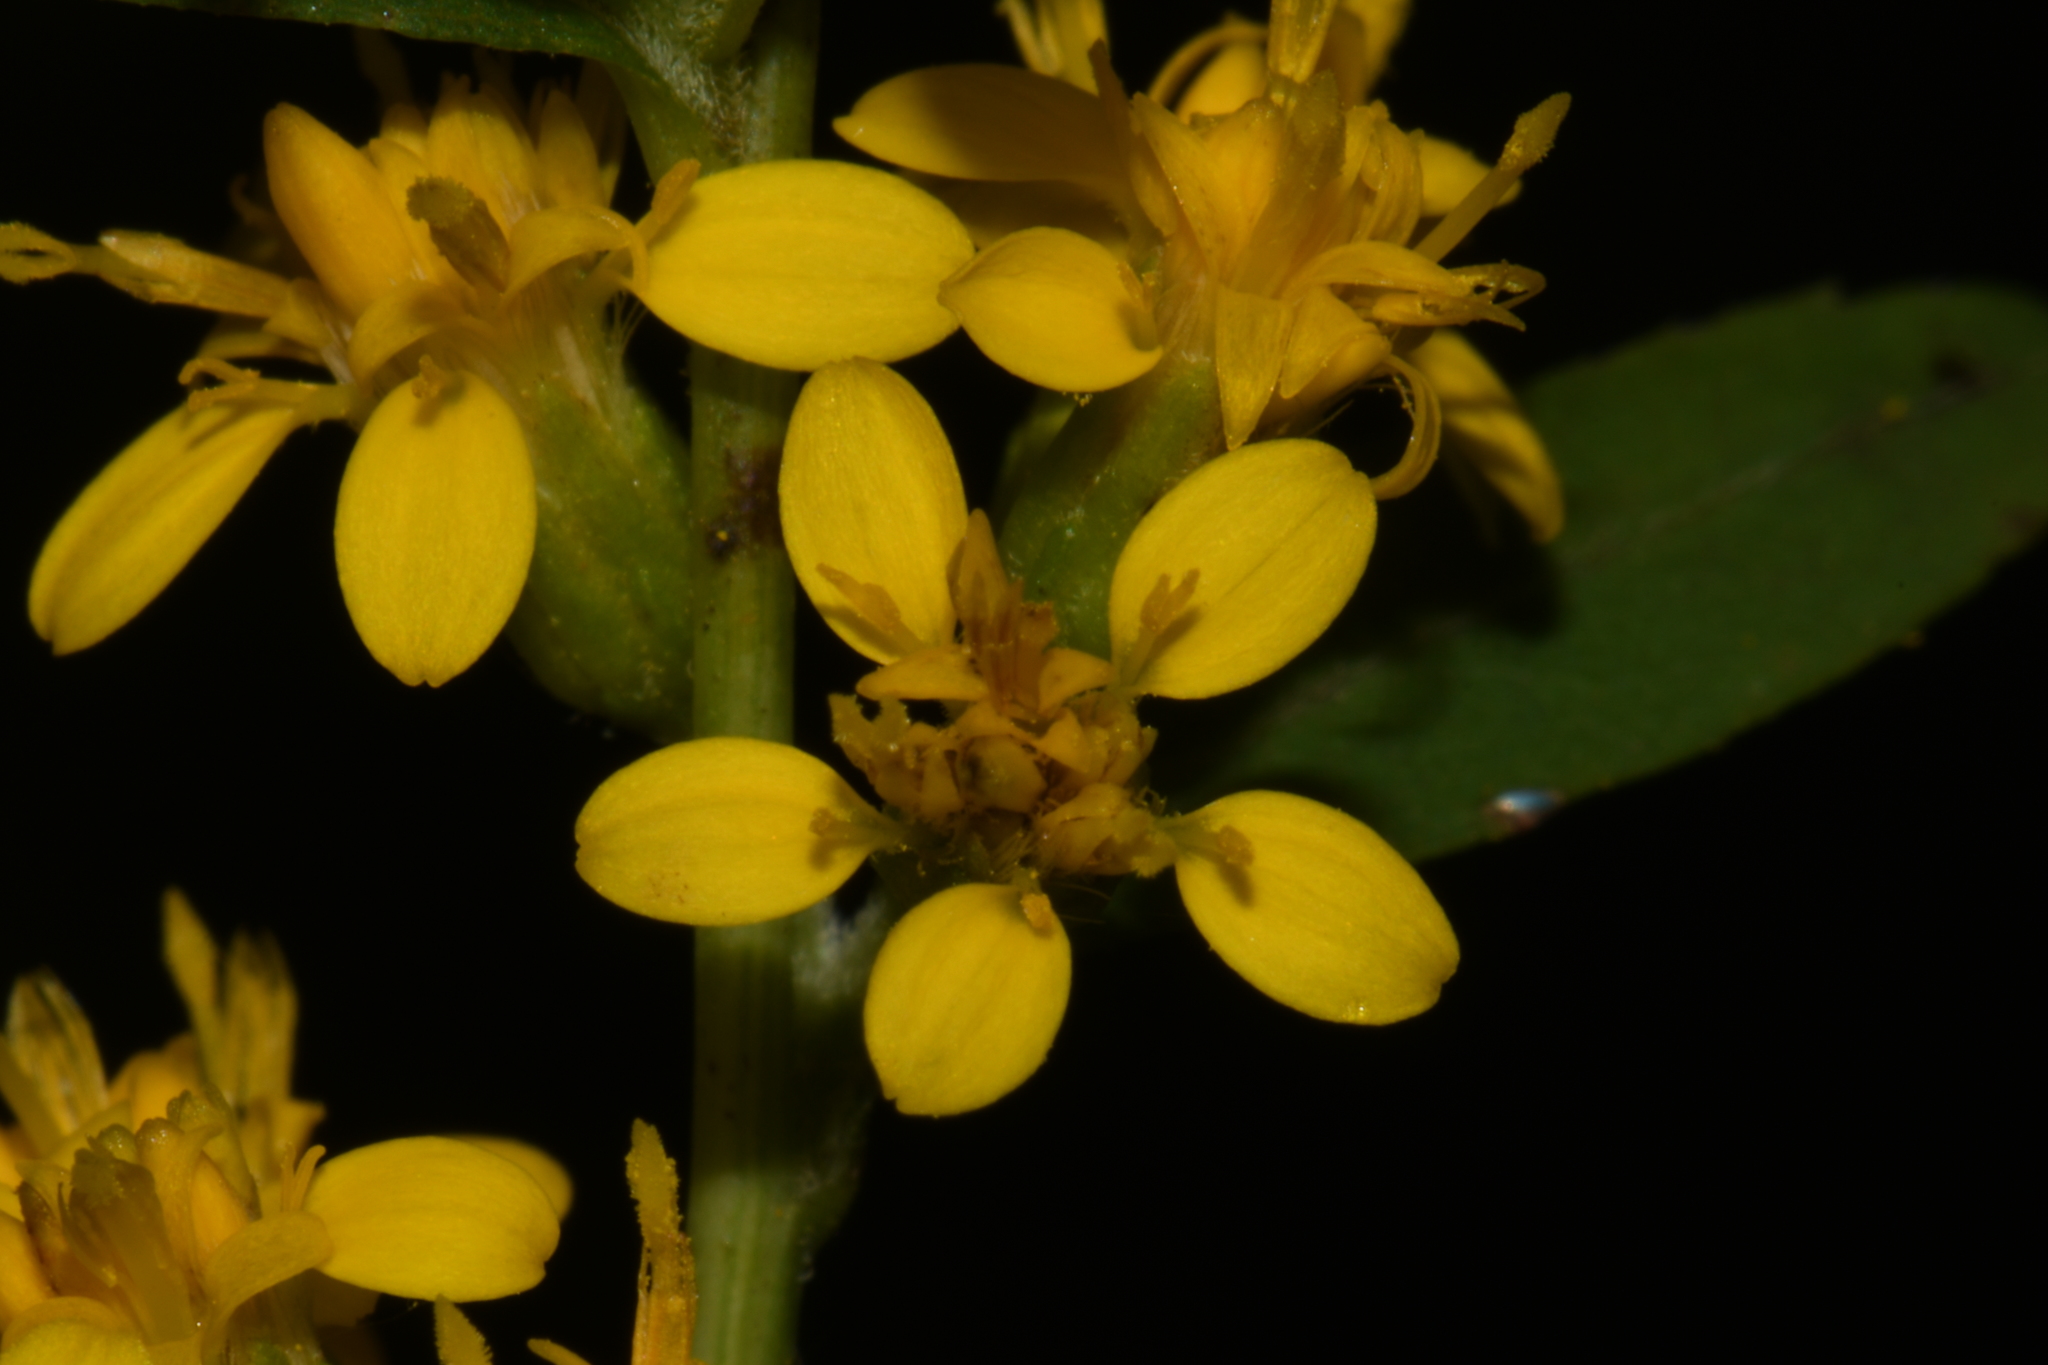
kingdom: Plantae
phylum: Tracheophyta
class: Magnoliopsida
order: Asterales
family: Asteraceae
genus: Solidago
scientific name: Solidago vaseyi
